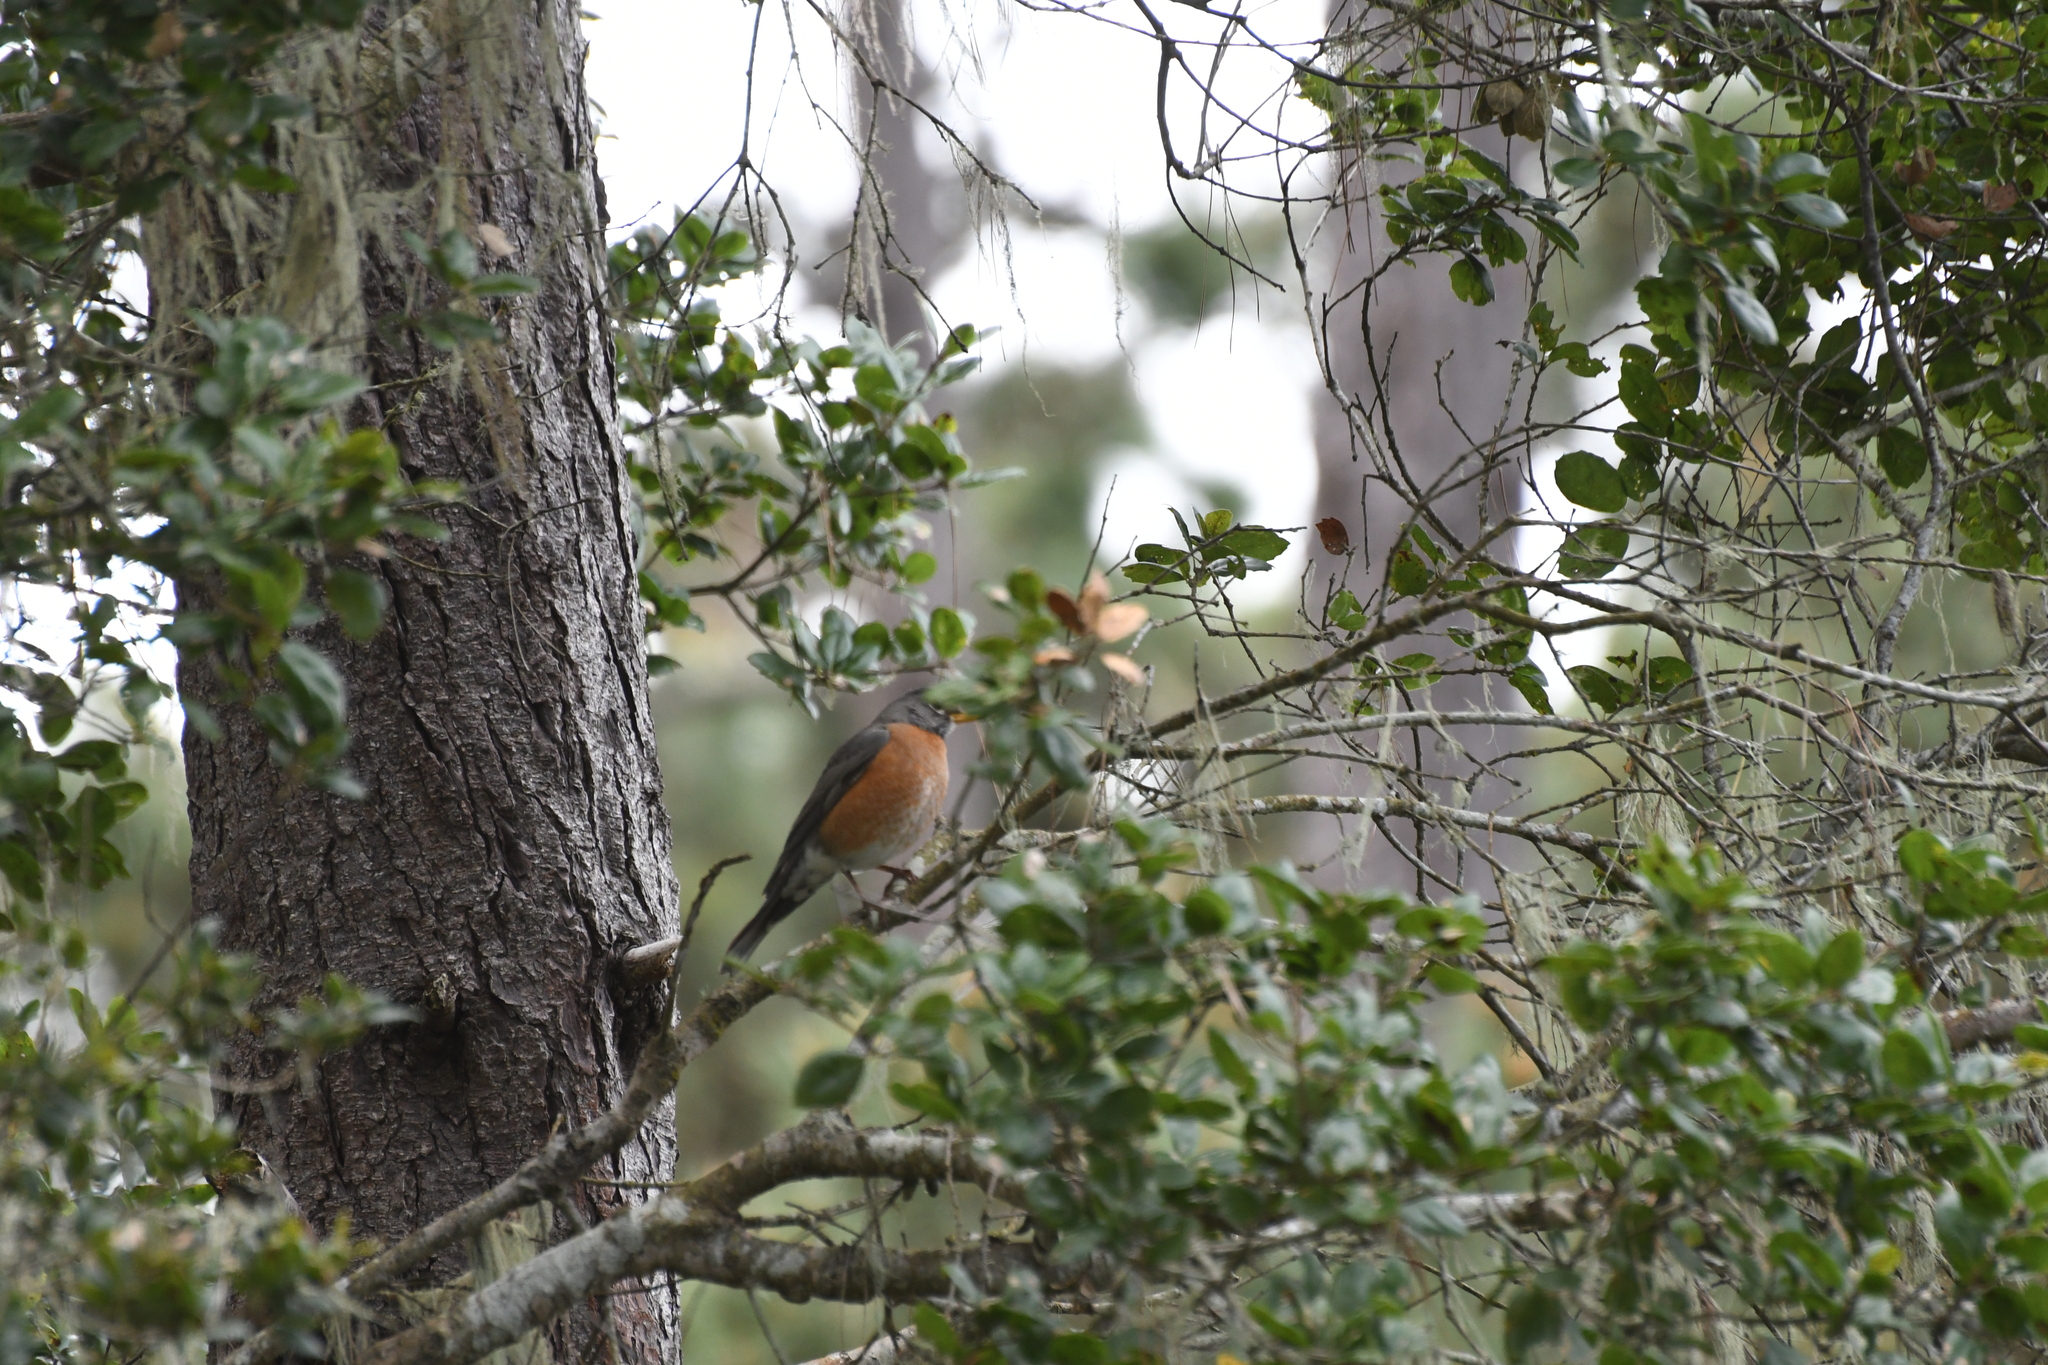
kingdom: Animalia
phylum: Chordata
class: Aves
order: Passeriformes
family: Turdidae
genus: Turdus
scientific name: Turdus migratorius
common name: American robin
